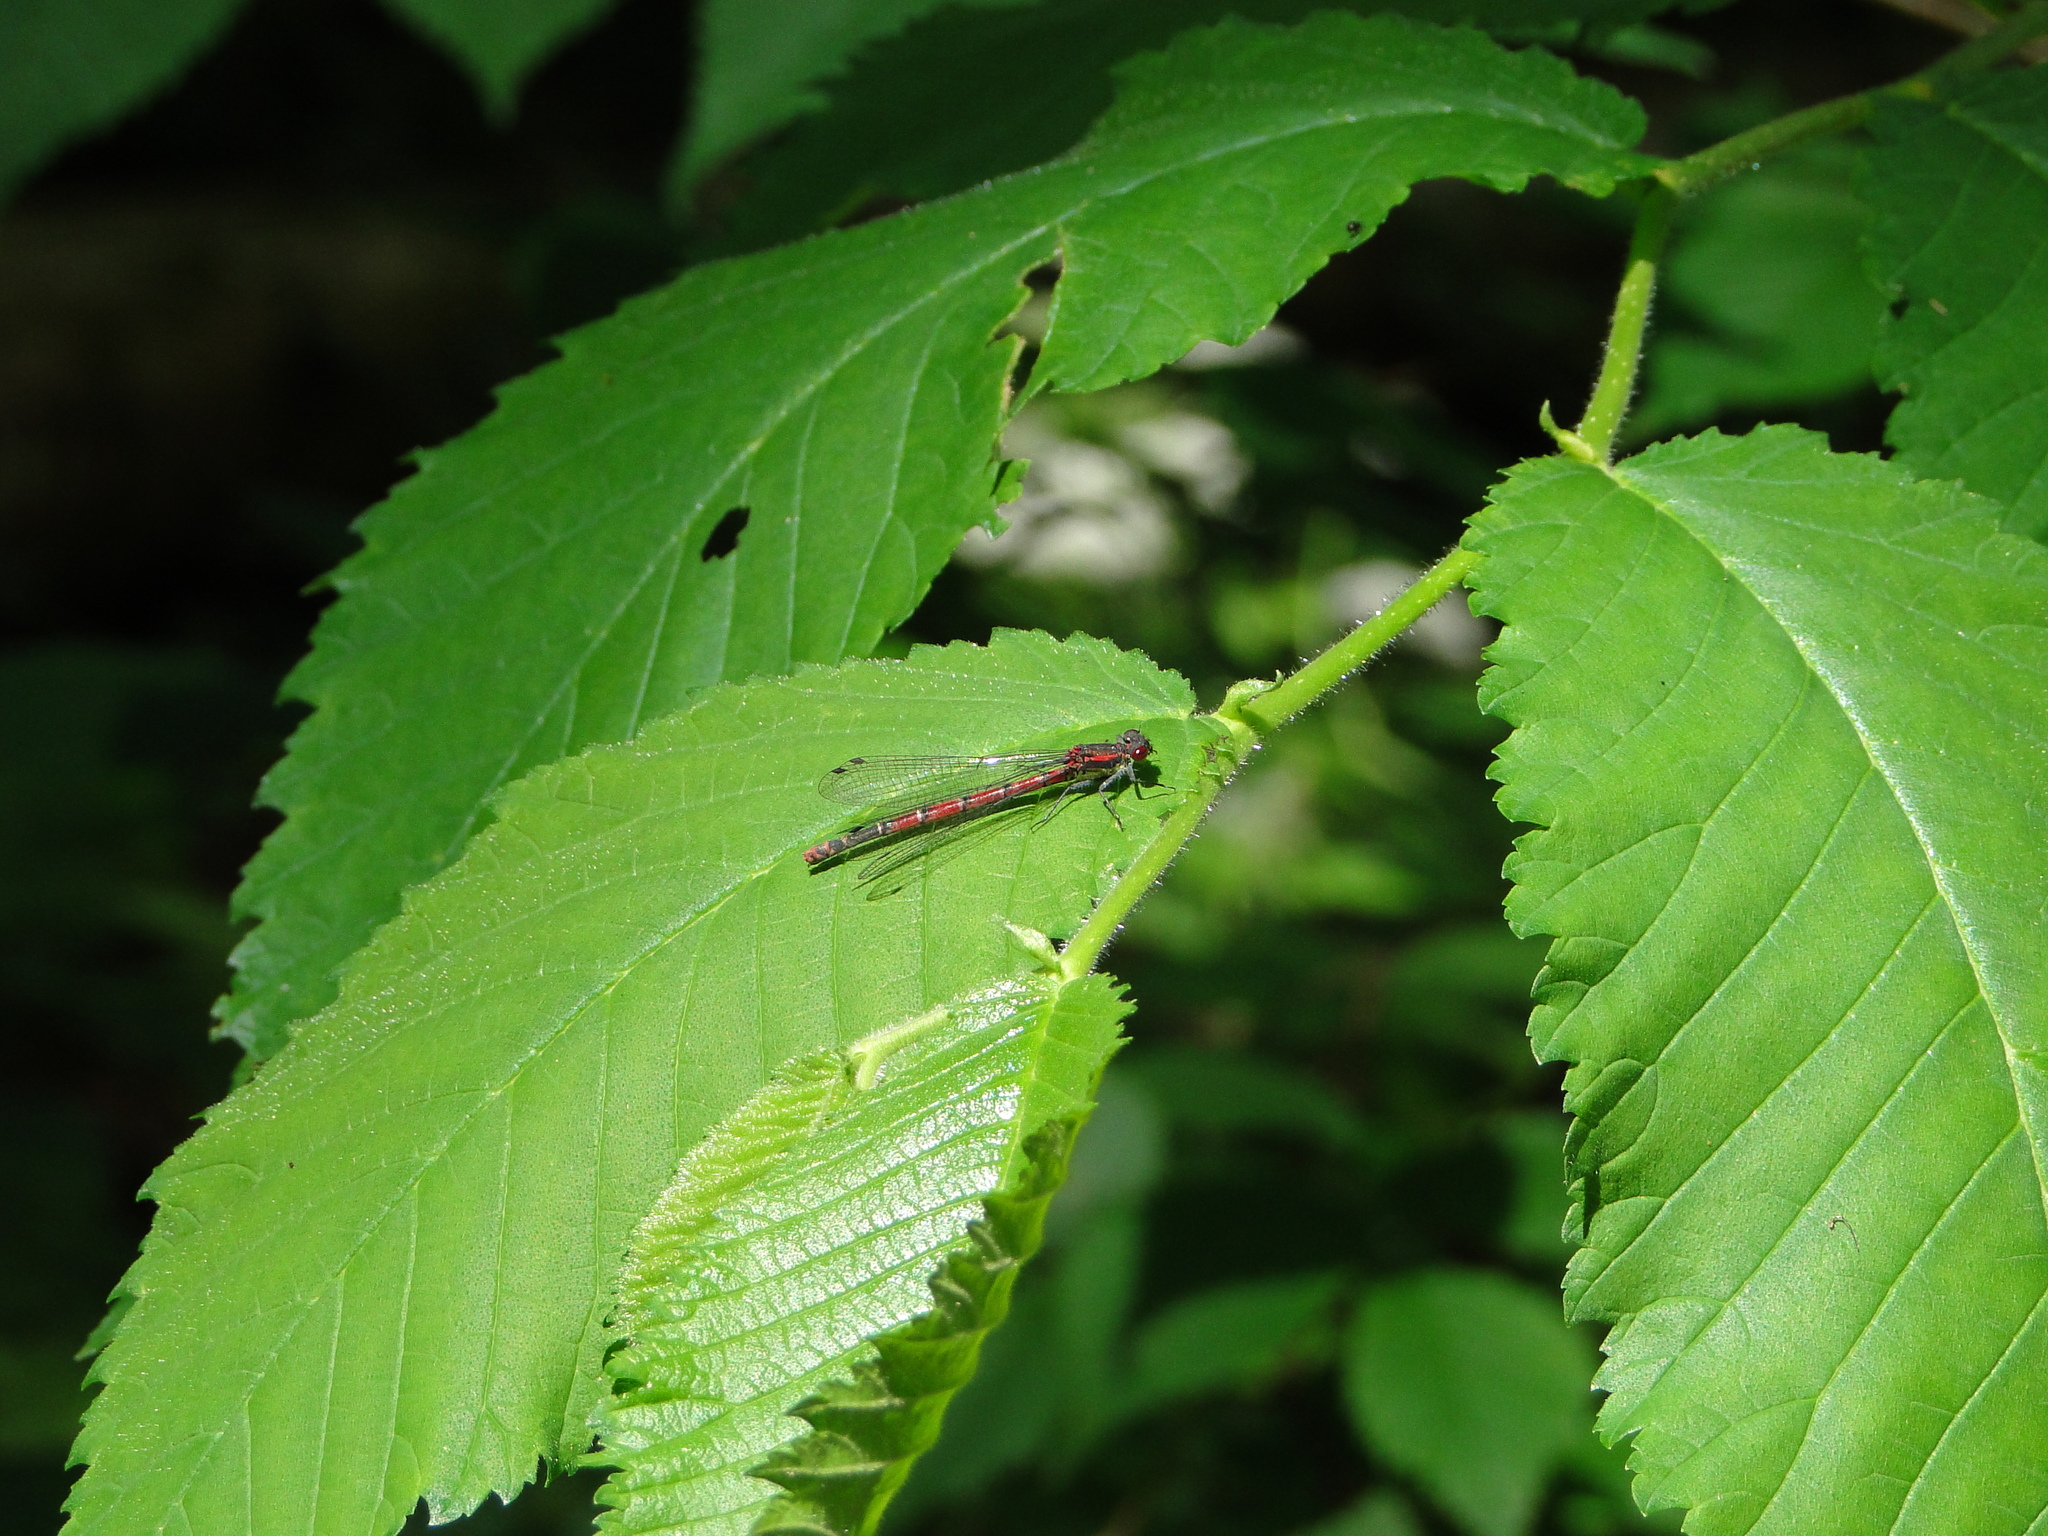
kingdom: Animalia
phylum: Arthropoda
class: Insecta
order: Odonata
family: Coenagrionidae
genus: Pyrrhosoma
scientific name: Pyrrhosoma nymphula
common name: Large red damsel
